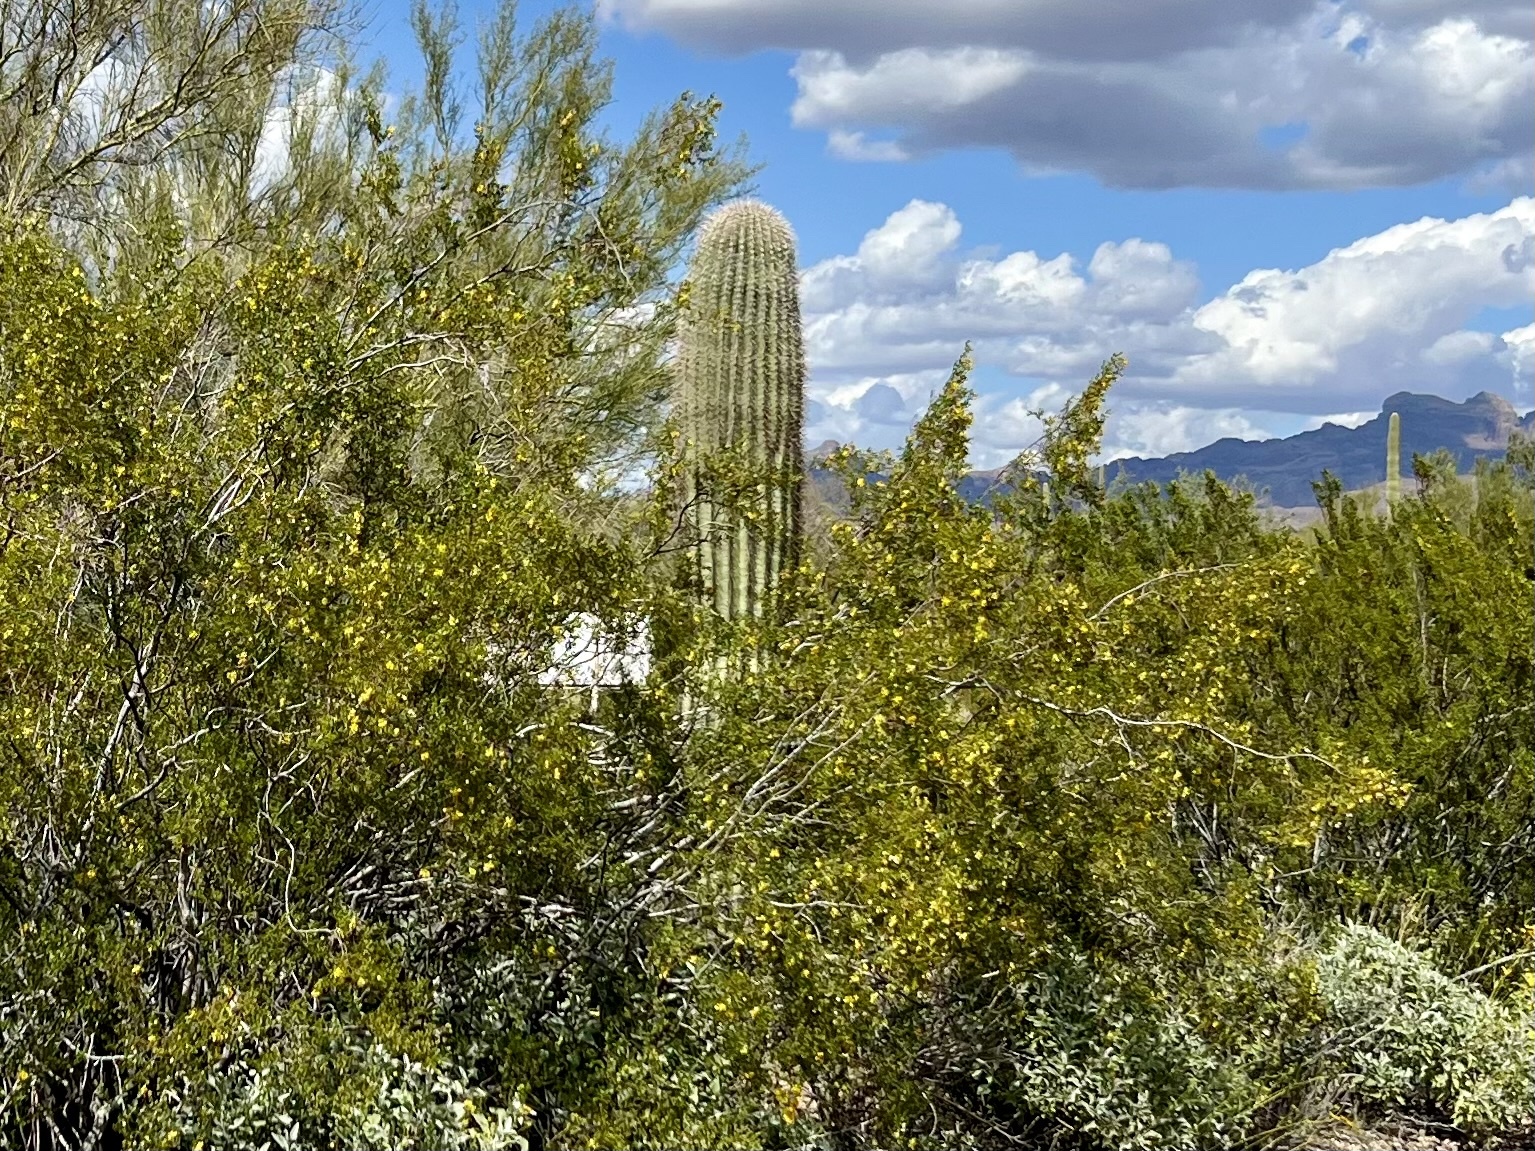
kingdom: Plantae
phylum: Tracheophyta
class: Magnoliopsida
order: Caryophyllales
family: Cactaceae
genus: Carnegiea
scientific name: Carnegiea gigantea
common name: Saguaro
